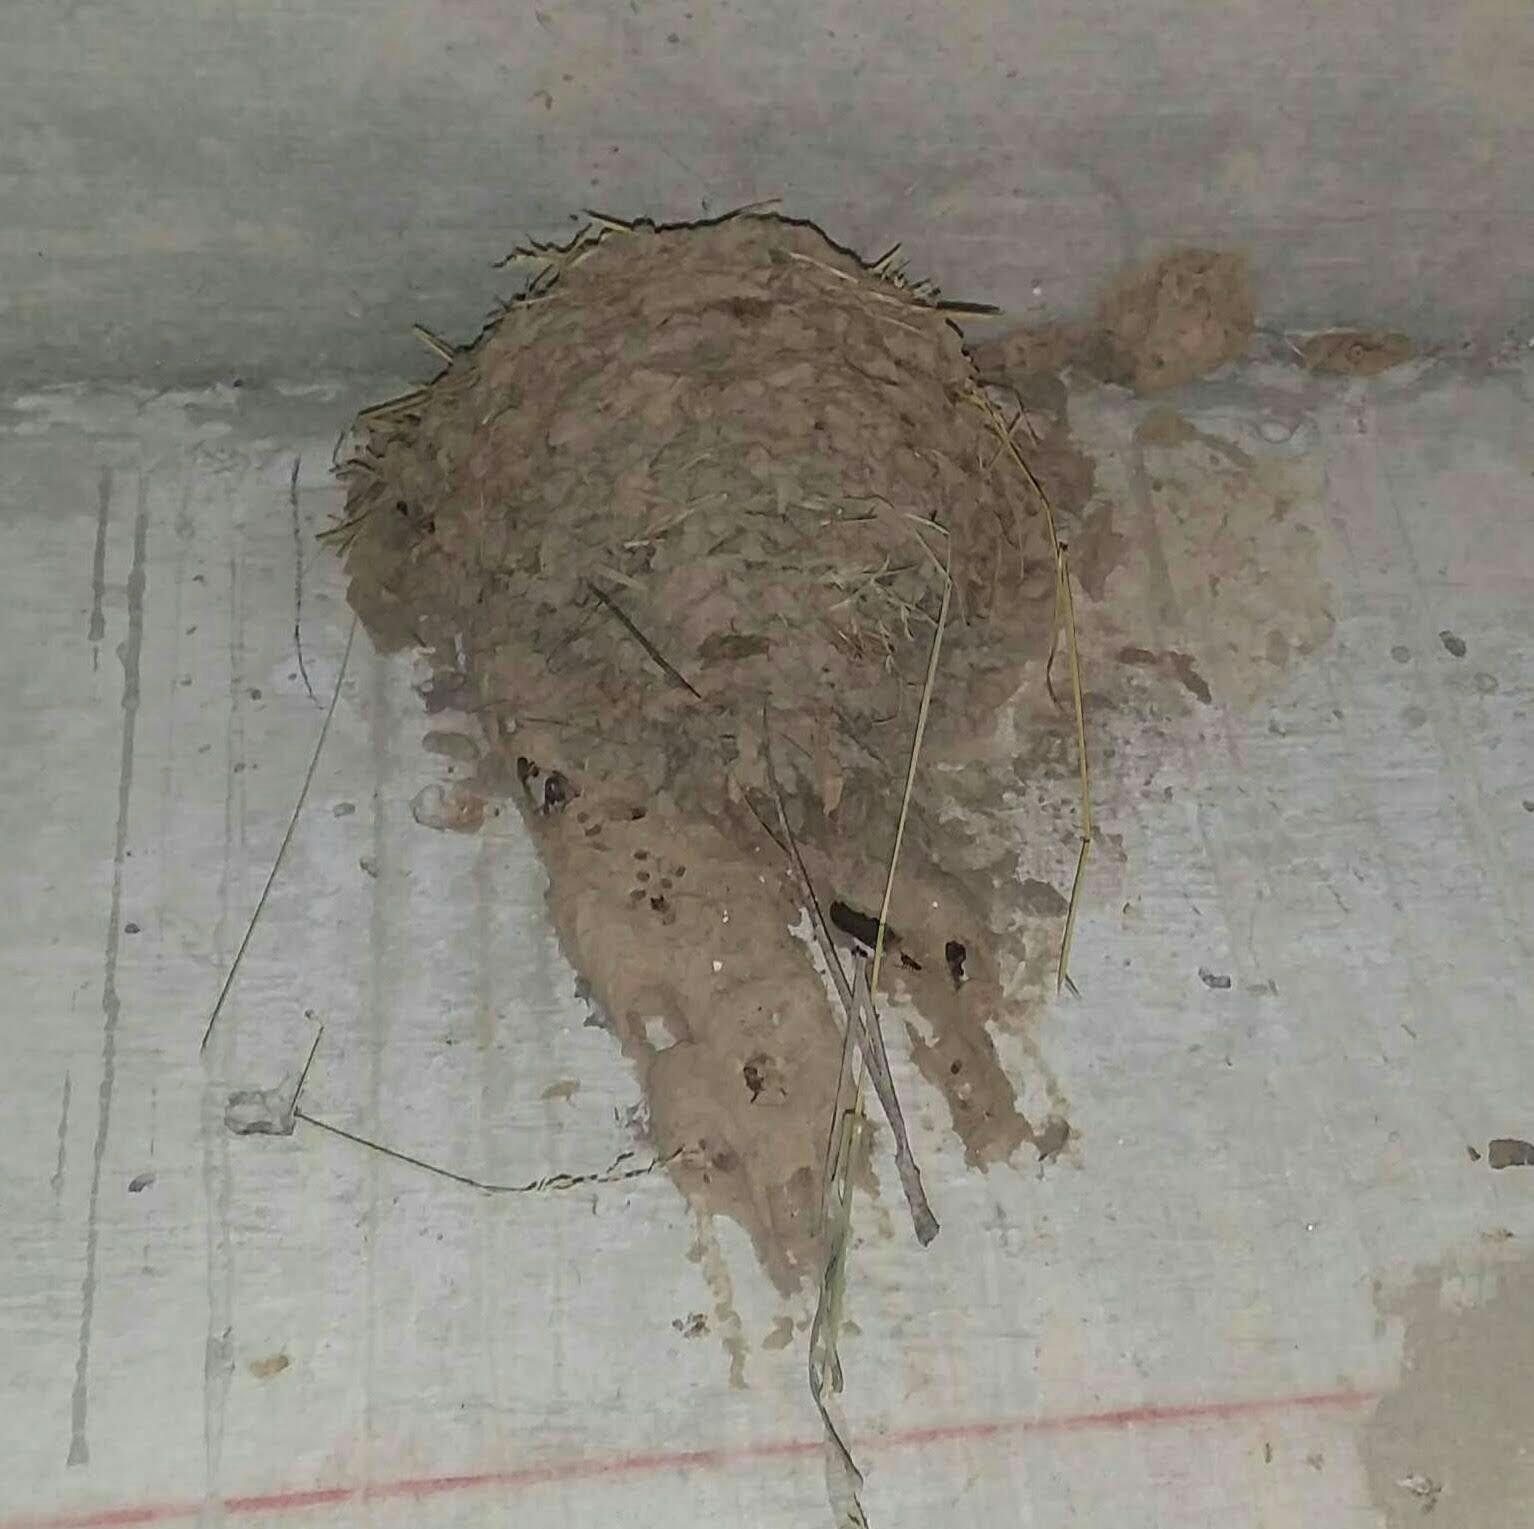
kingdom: Animalia
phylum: Chordata
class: Aves
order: Passeriformes
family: Hirundinidae
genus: Hirundo
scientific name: Hirundo rustica
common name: Barn swallow
